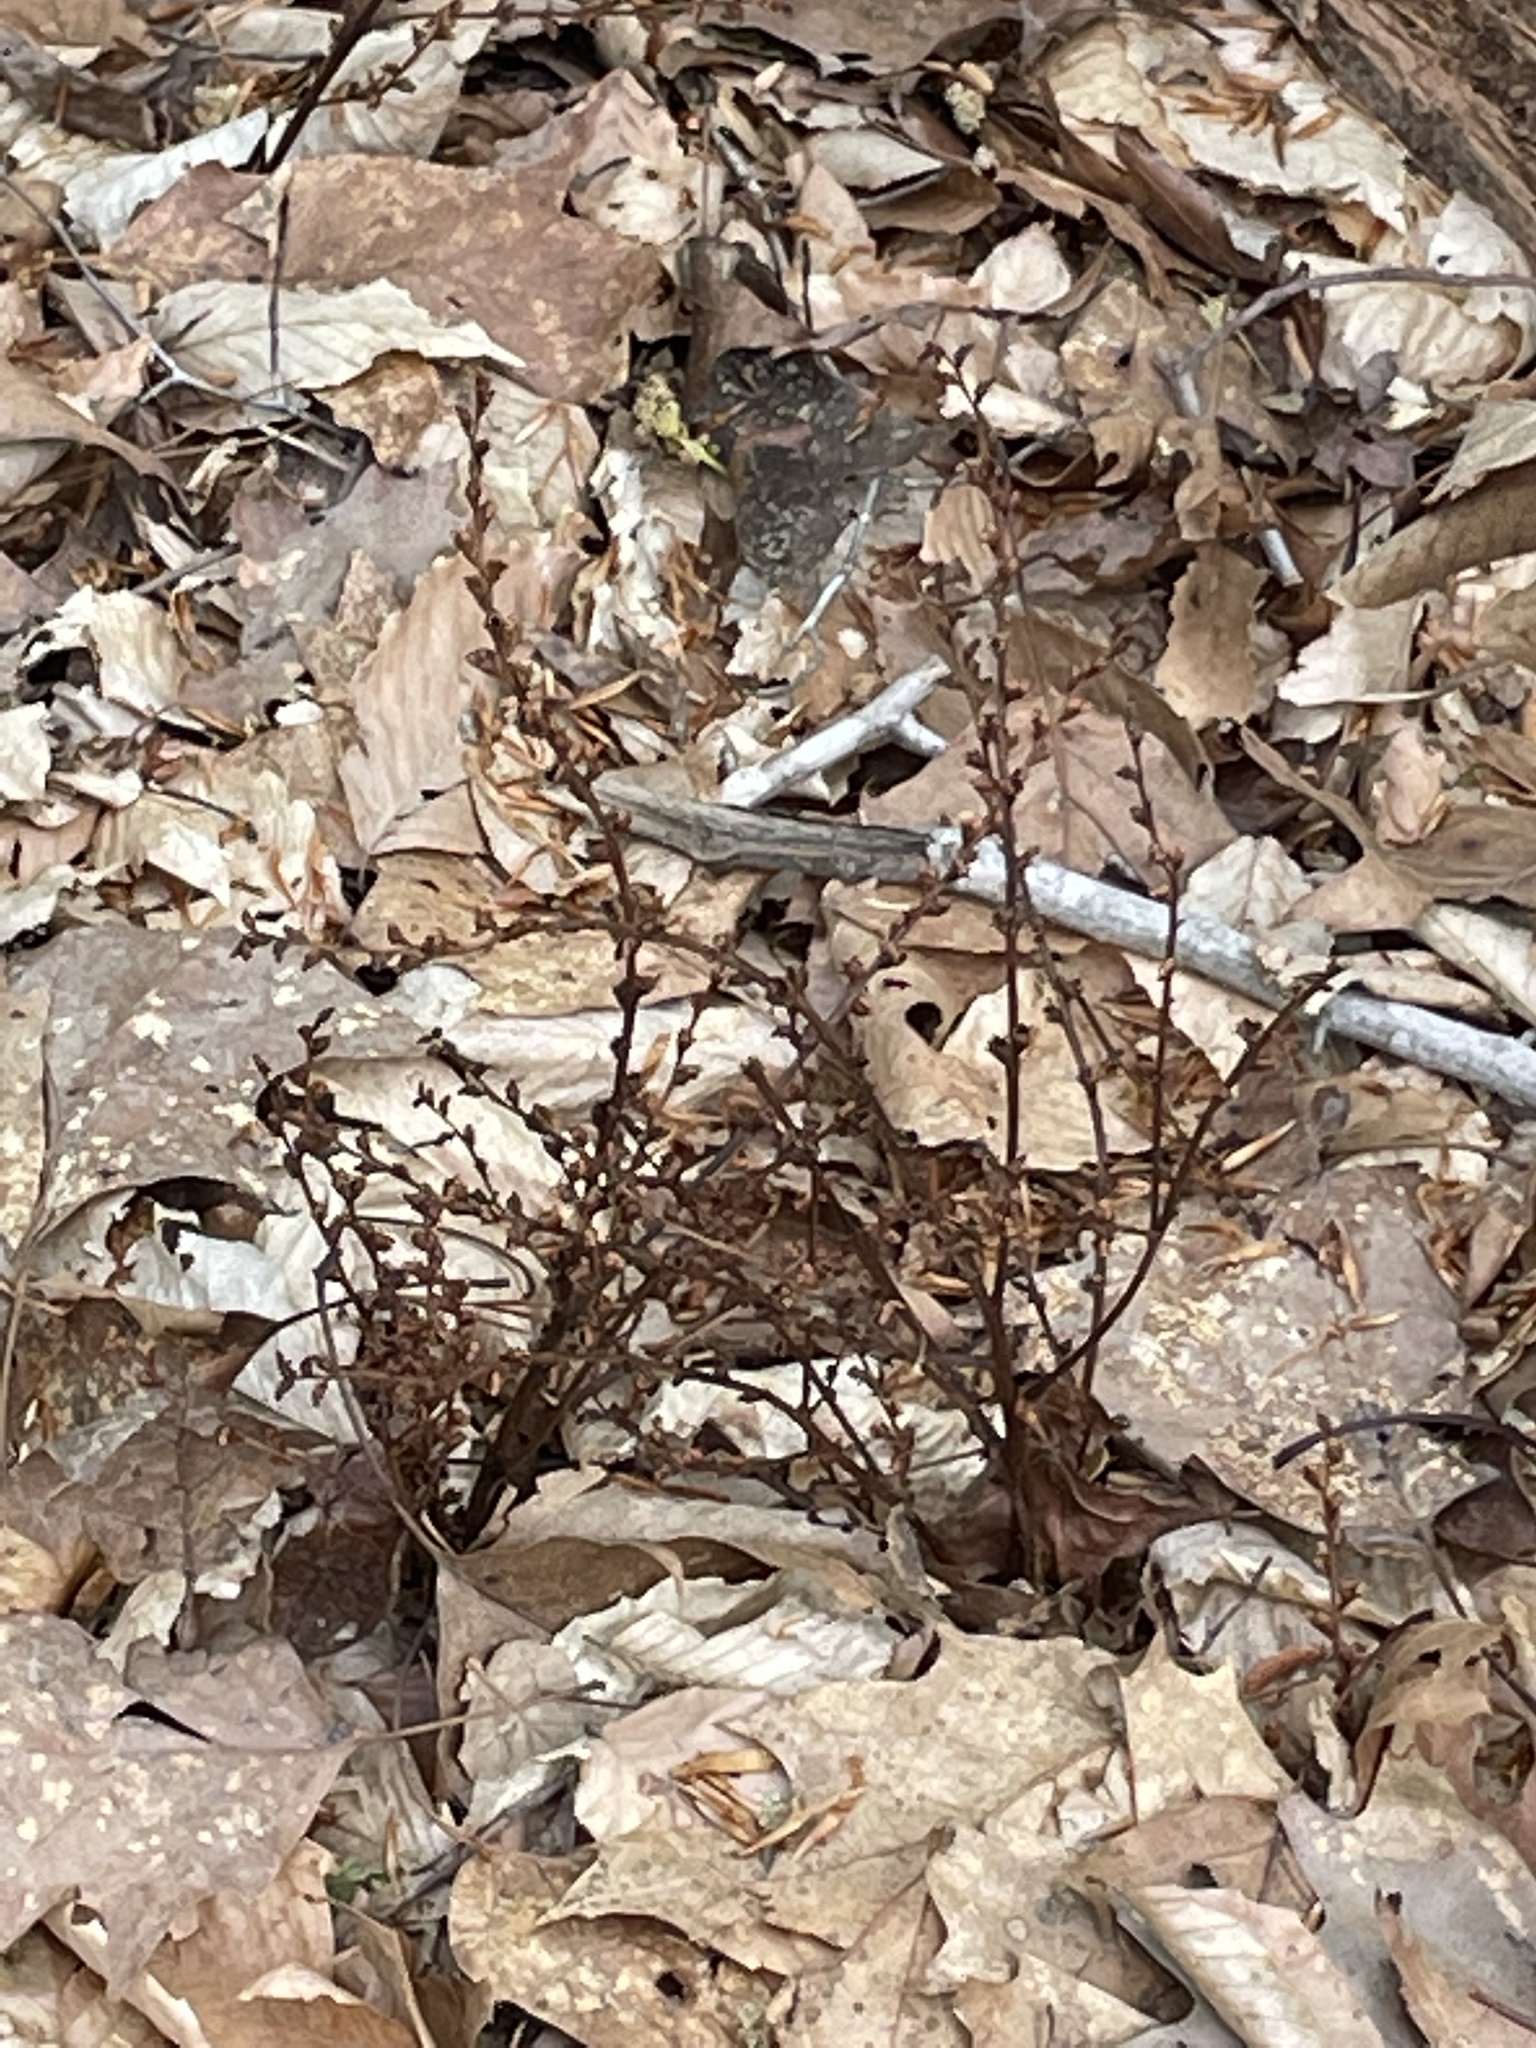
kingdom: Plantae
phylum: Tracheophyta
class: Magnoliopsida
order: Lamiales
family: Orobanchaceae
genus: Epifagus
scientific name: Epifagus virginiana
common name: Beechdrops
